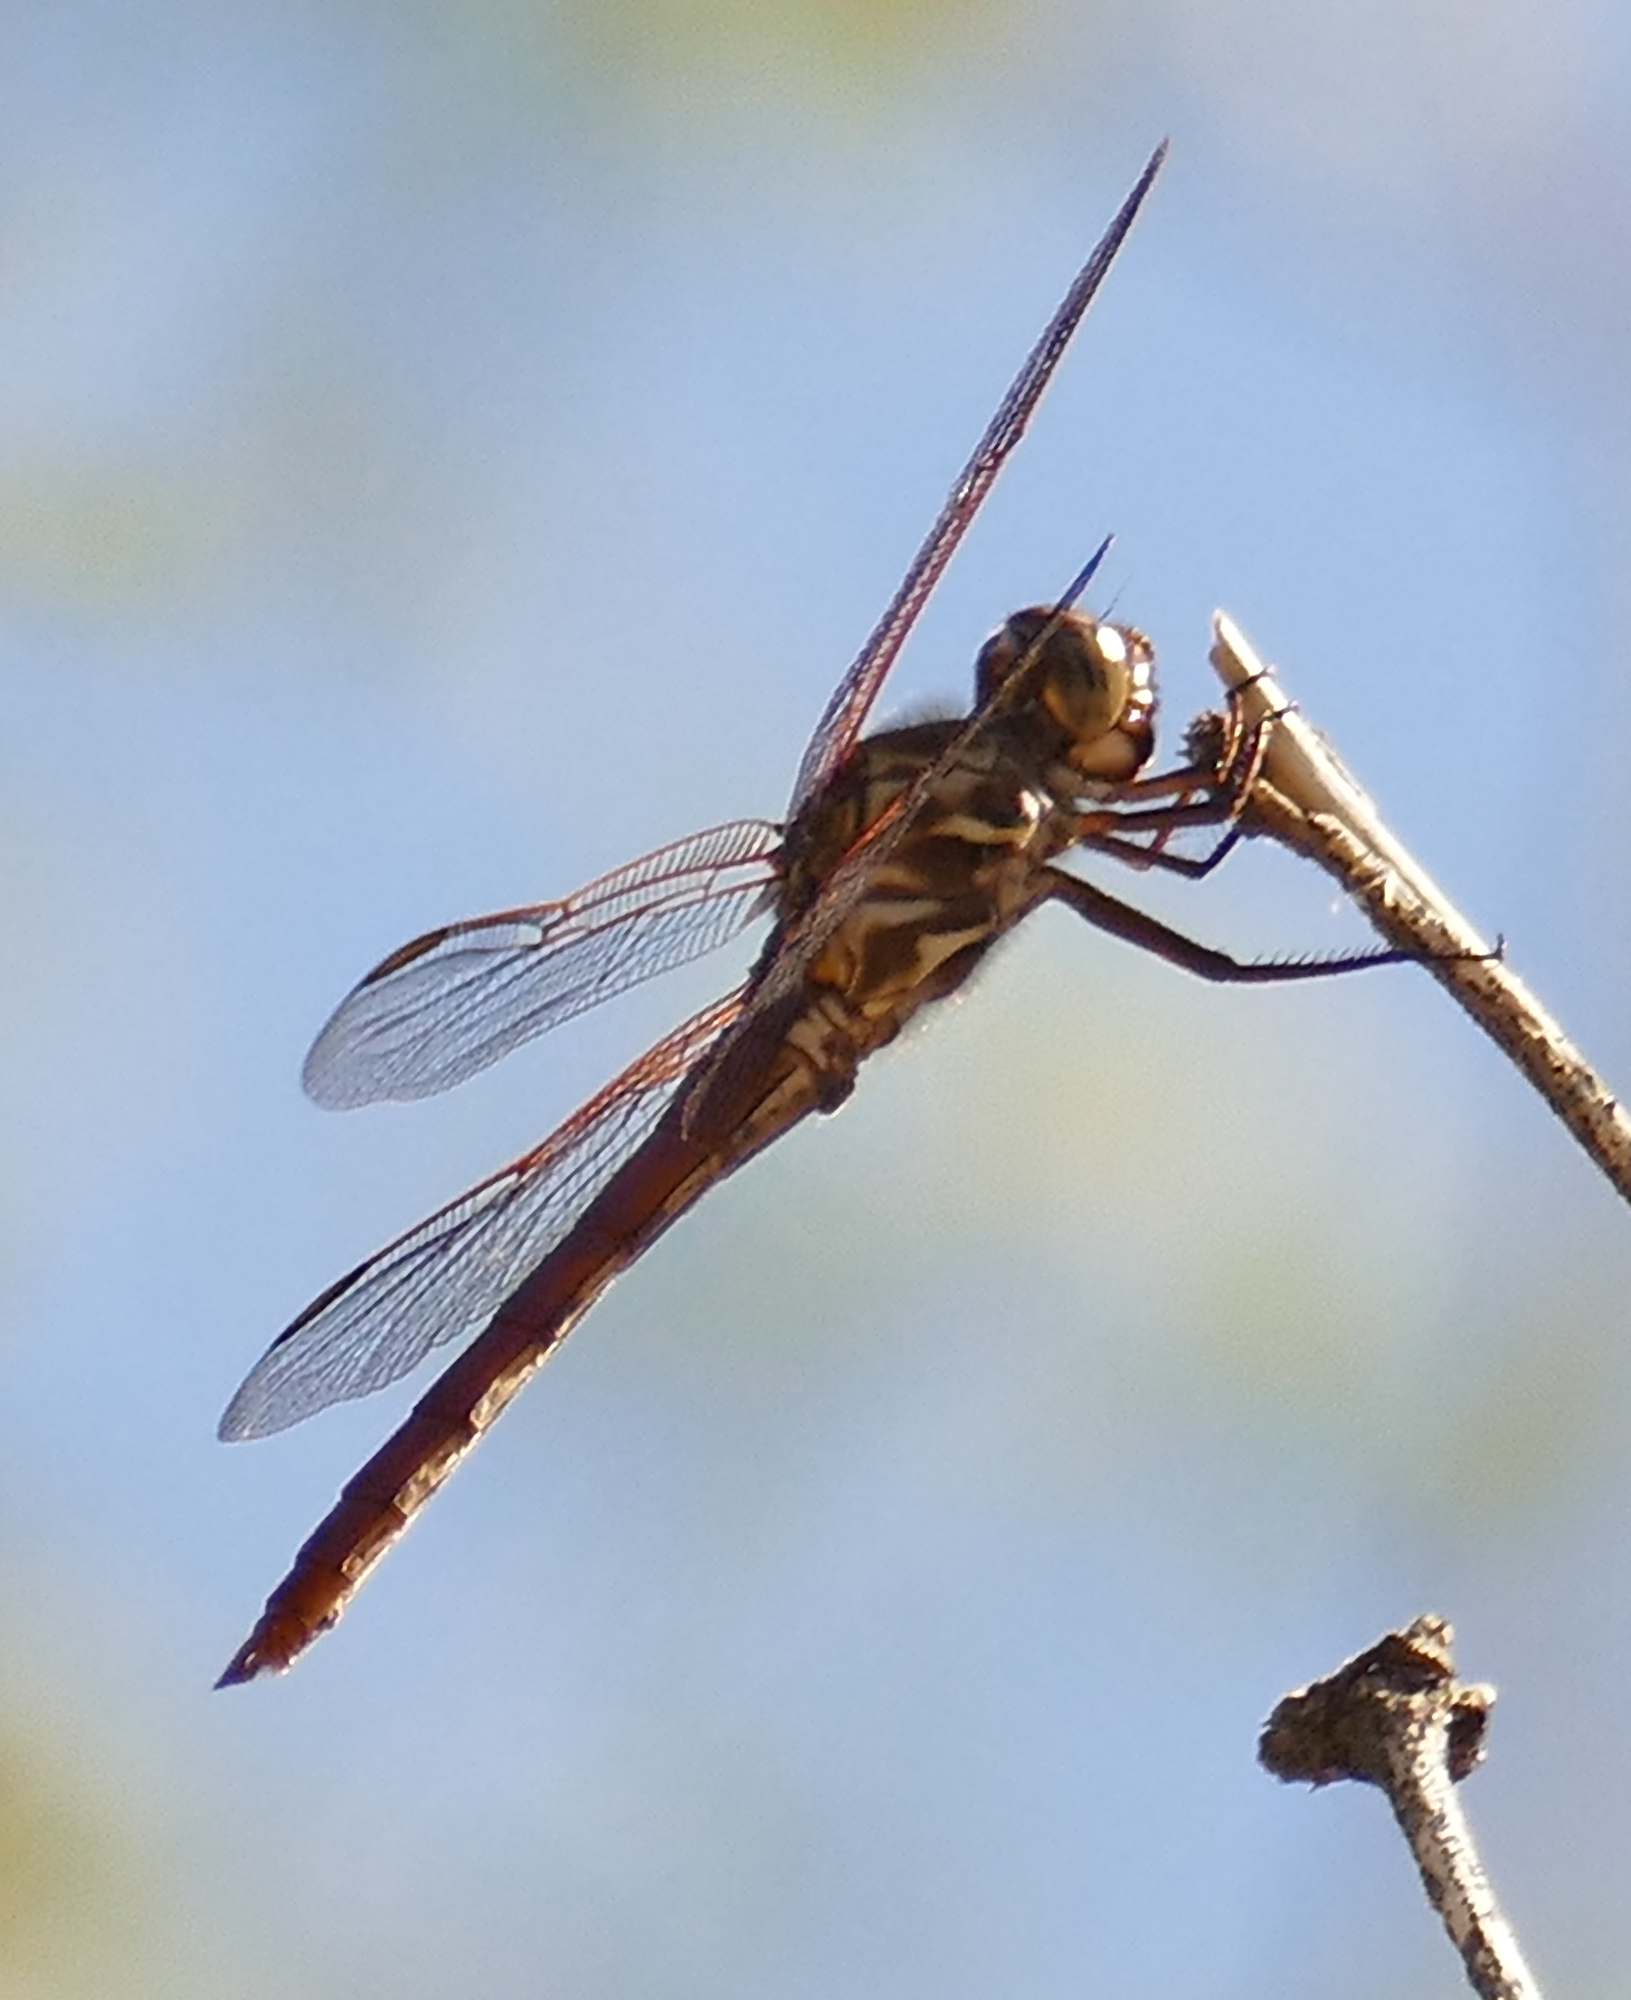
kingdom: Animalia
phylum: Arthropoda
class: Insecta
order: Odonata
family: Libellulidae
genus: Orthemis
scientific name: Orthemis ferruginea
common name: Roseate skimmer
